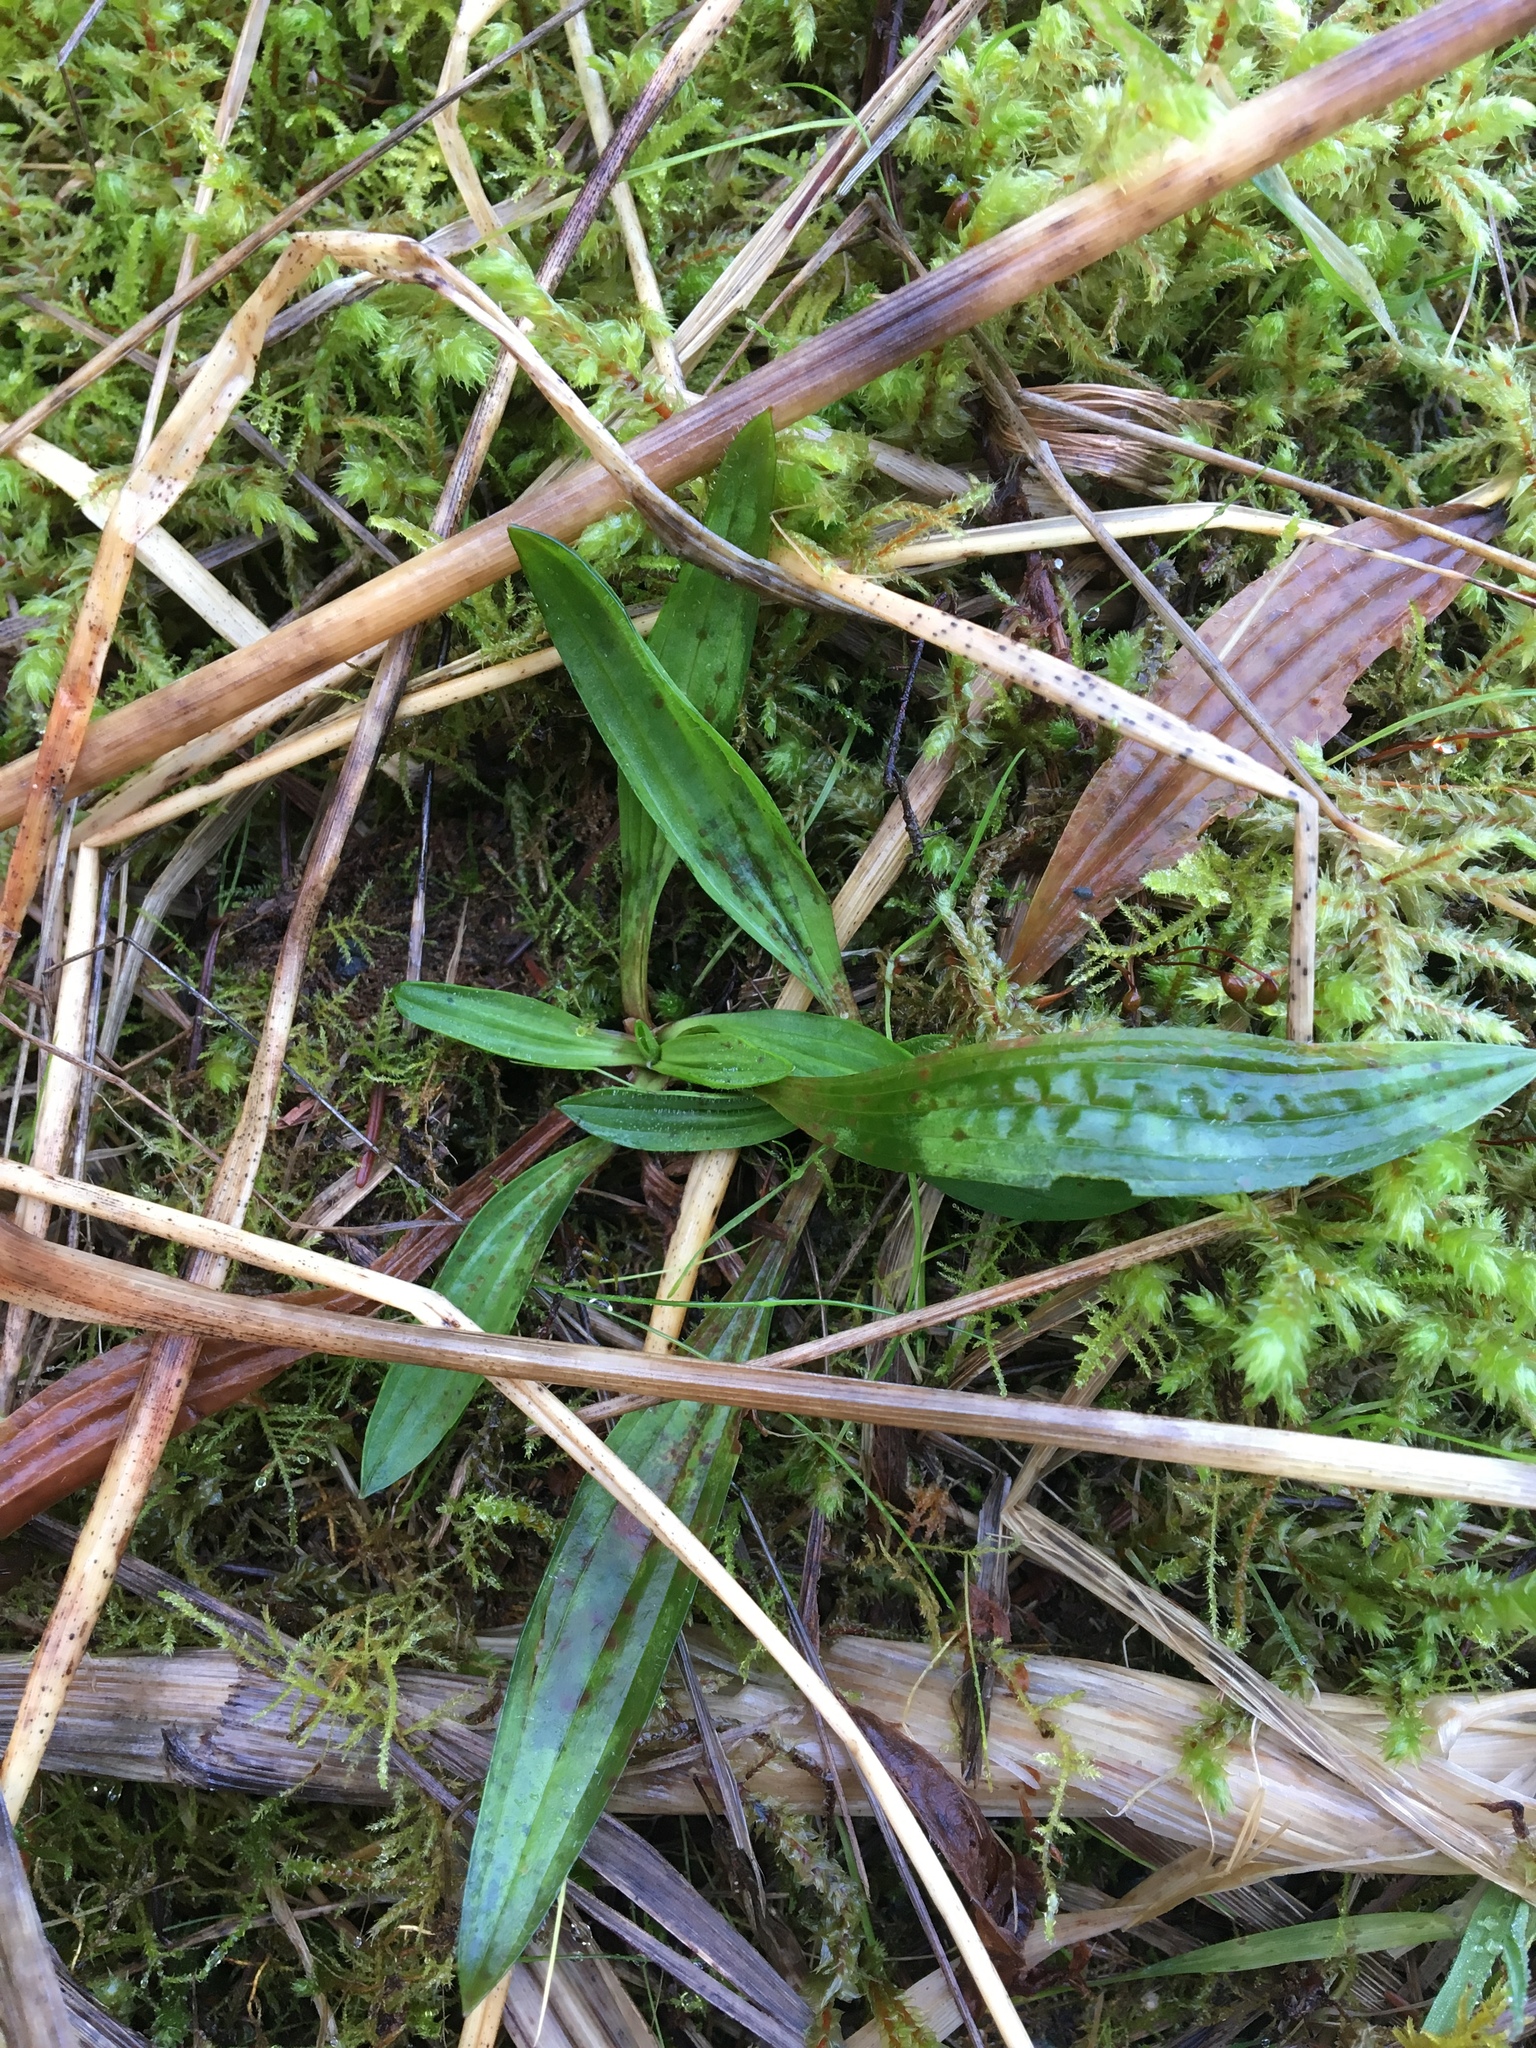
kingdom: Plantae
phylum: Tracheophyta
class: Magnoliopsida
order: Lamiales
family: Plantaginaceae
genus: Plantago
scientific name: Plantago lanceolata
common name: Ribwort plantain
